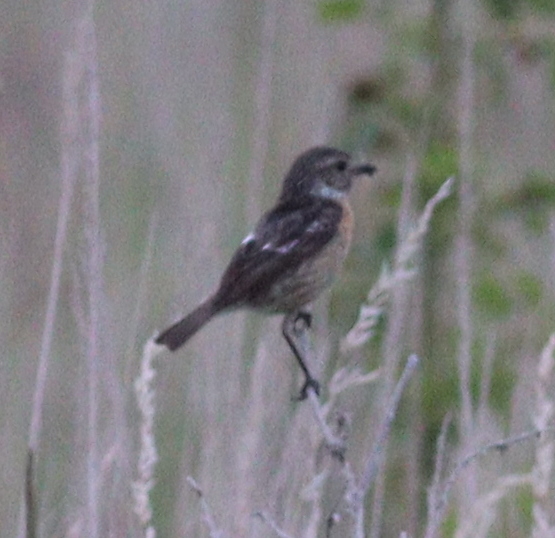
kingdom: Animalia
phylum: Chordata
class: Aves
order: Passeriformes
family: Muscicapidae
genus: Saxicola
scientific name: Saxicola rubicola
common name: European stonechat
